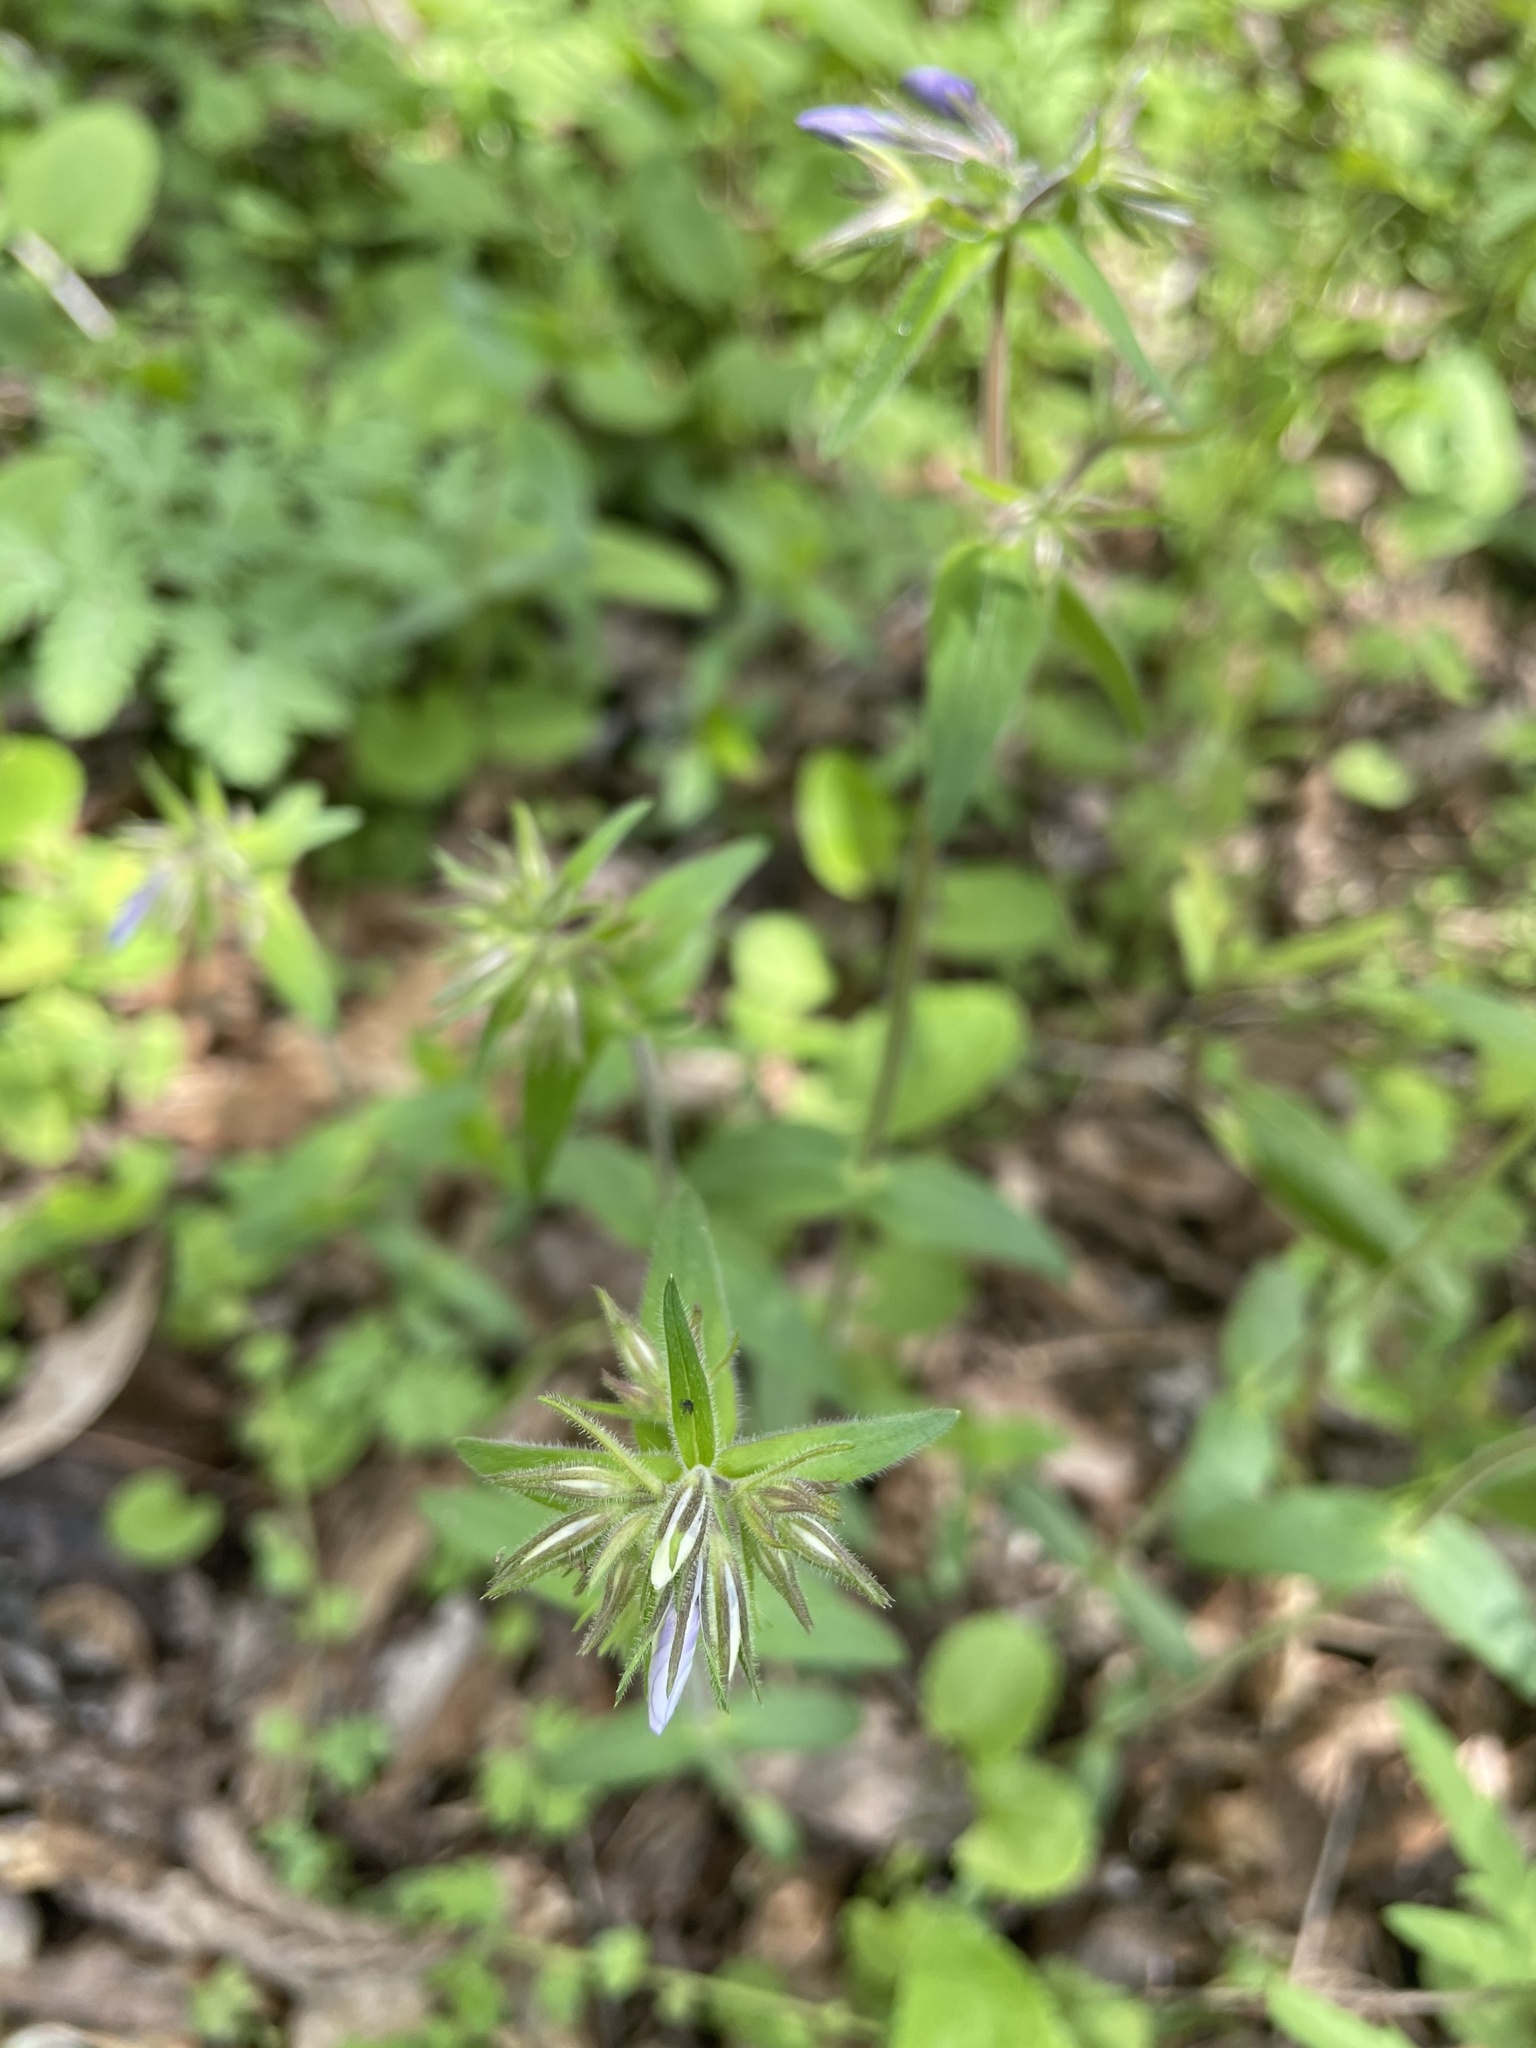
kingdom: Plantae
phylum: Tracheophyta
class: Magnoliopsida
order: Ericales
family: Polemoniaceae
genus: Phlox
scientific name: Phlox divaricata
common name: Blue phlox
